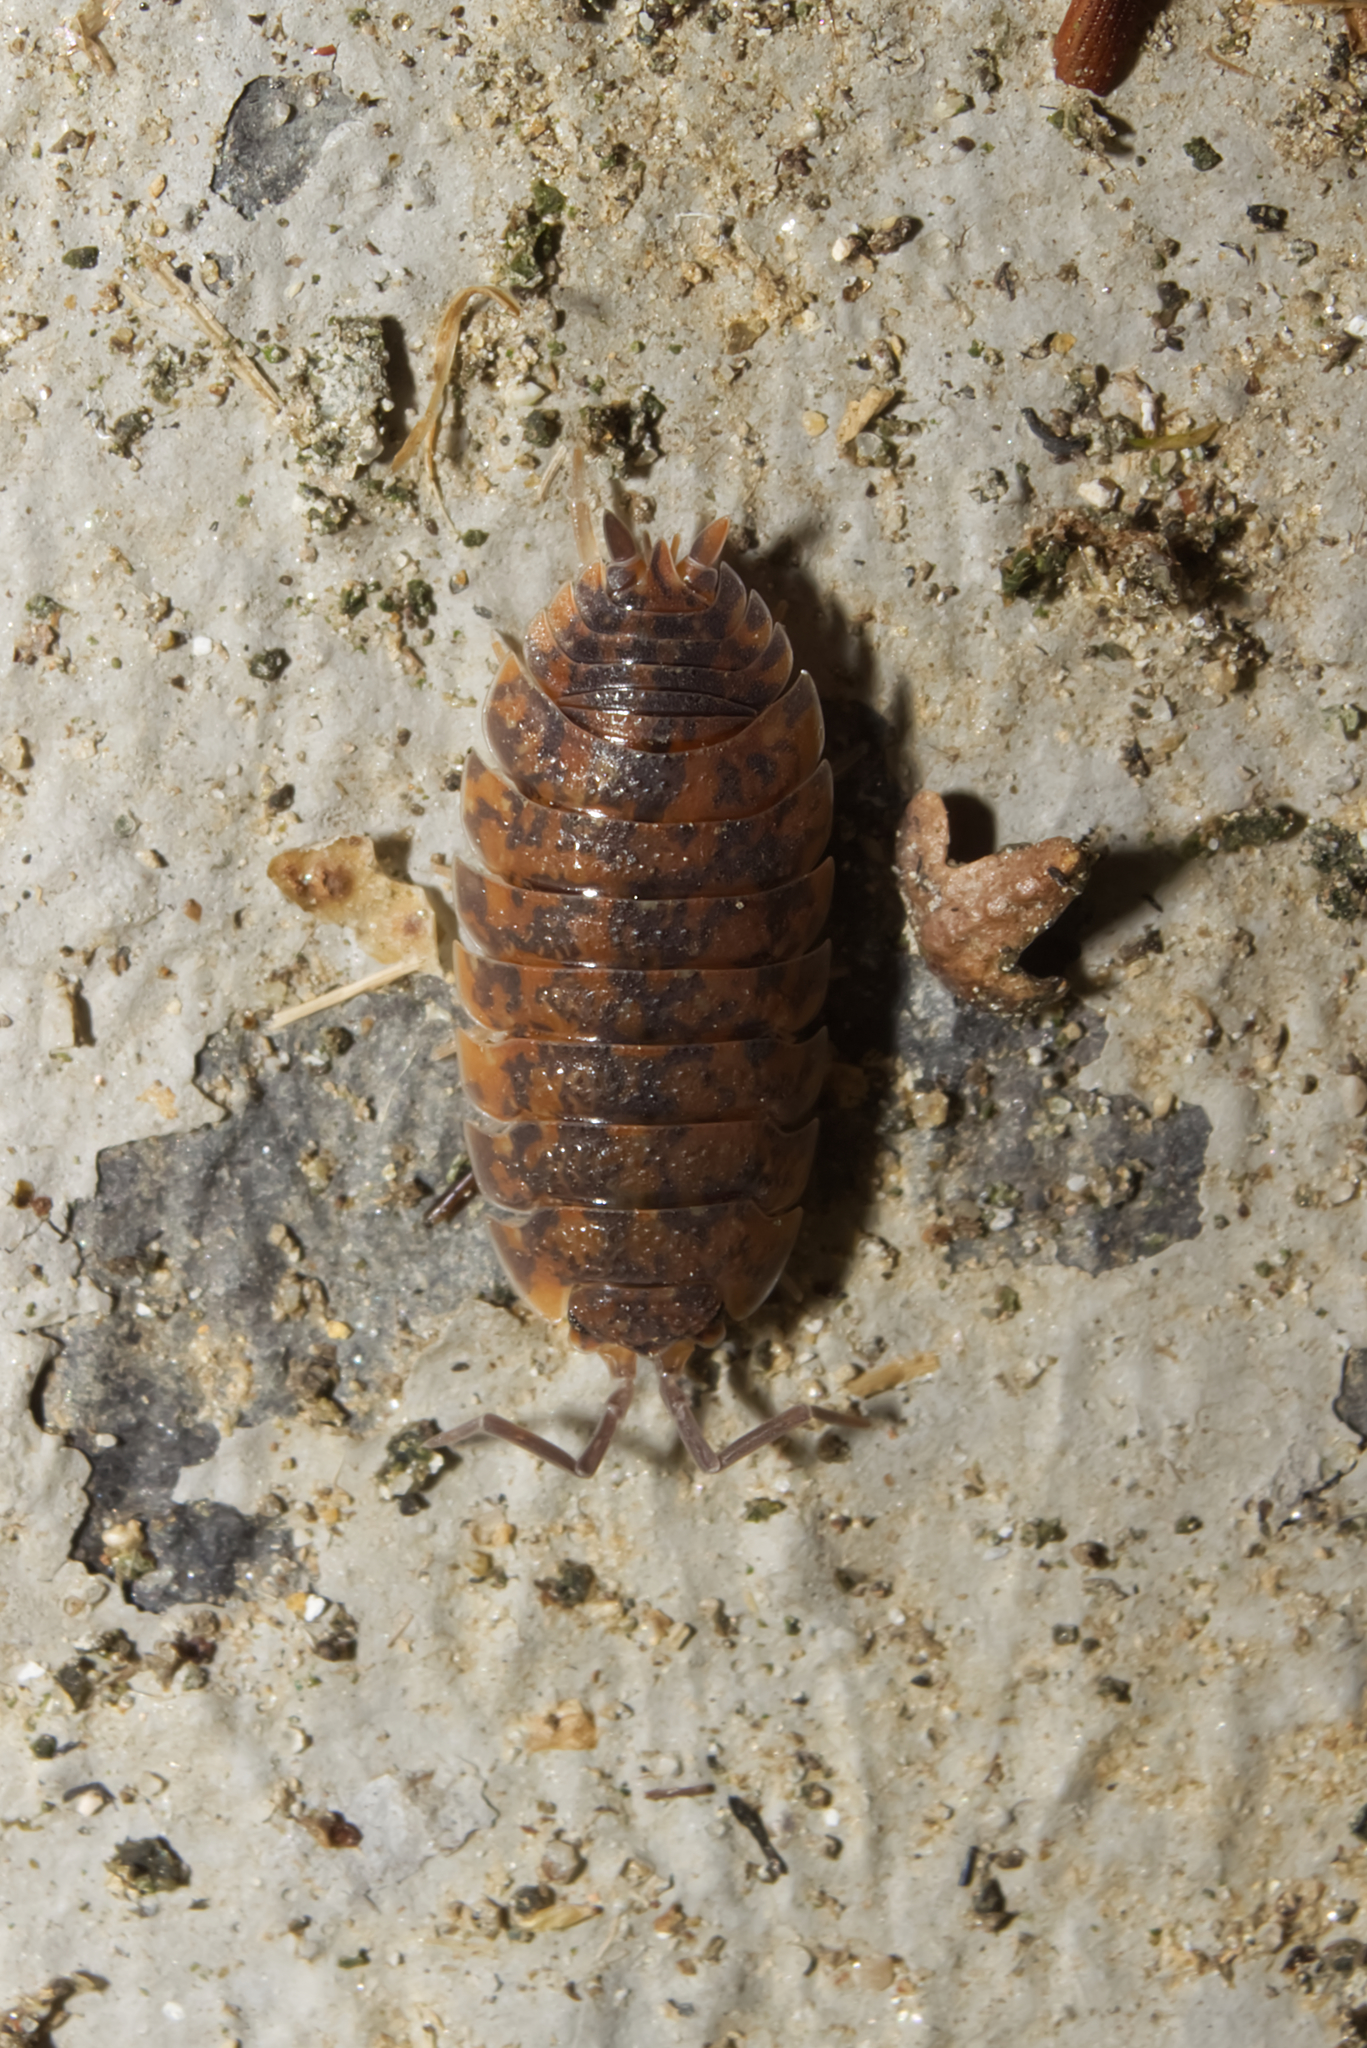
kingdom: Animalia
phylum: Arthropoda
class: Malacostraca
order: Isopoda
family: Porcellionidae
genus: Porcellio
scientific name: Porcellio scaber
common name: Common rough woodlouse
